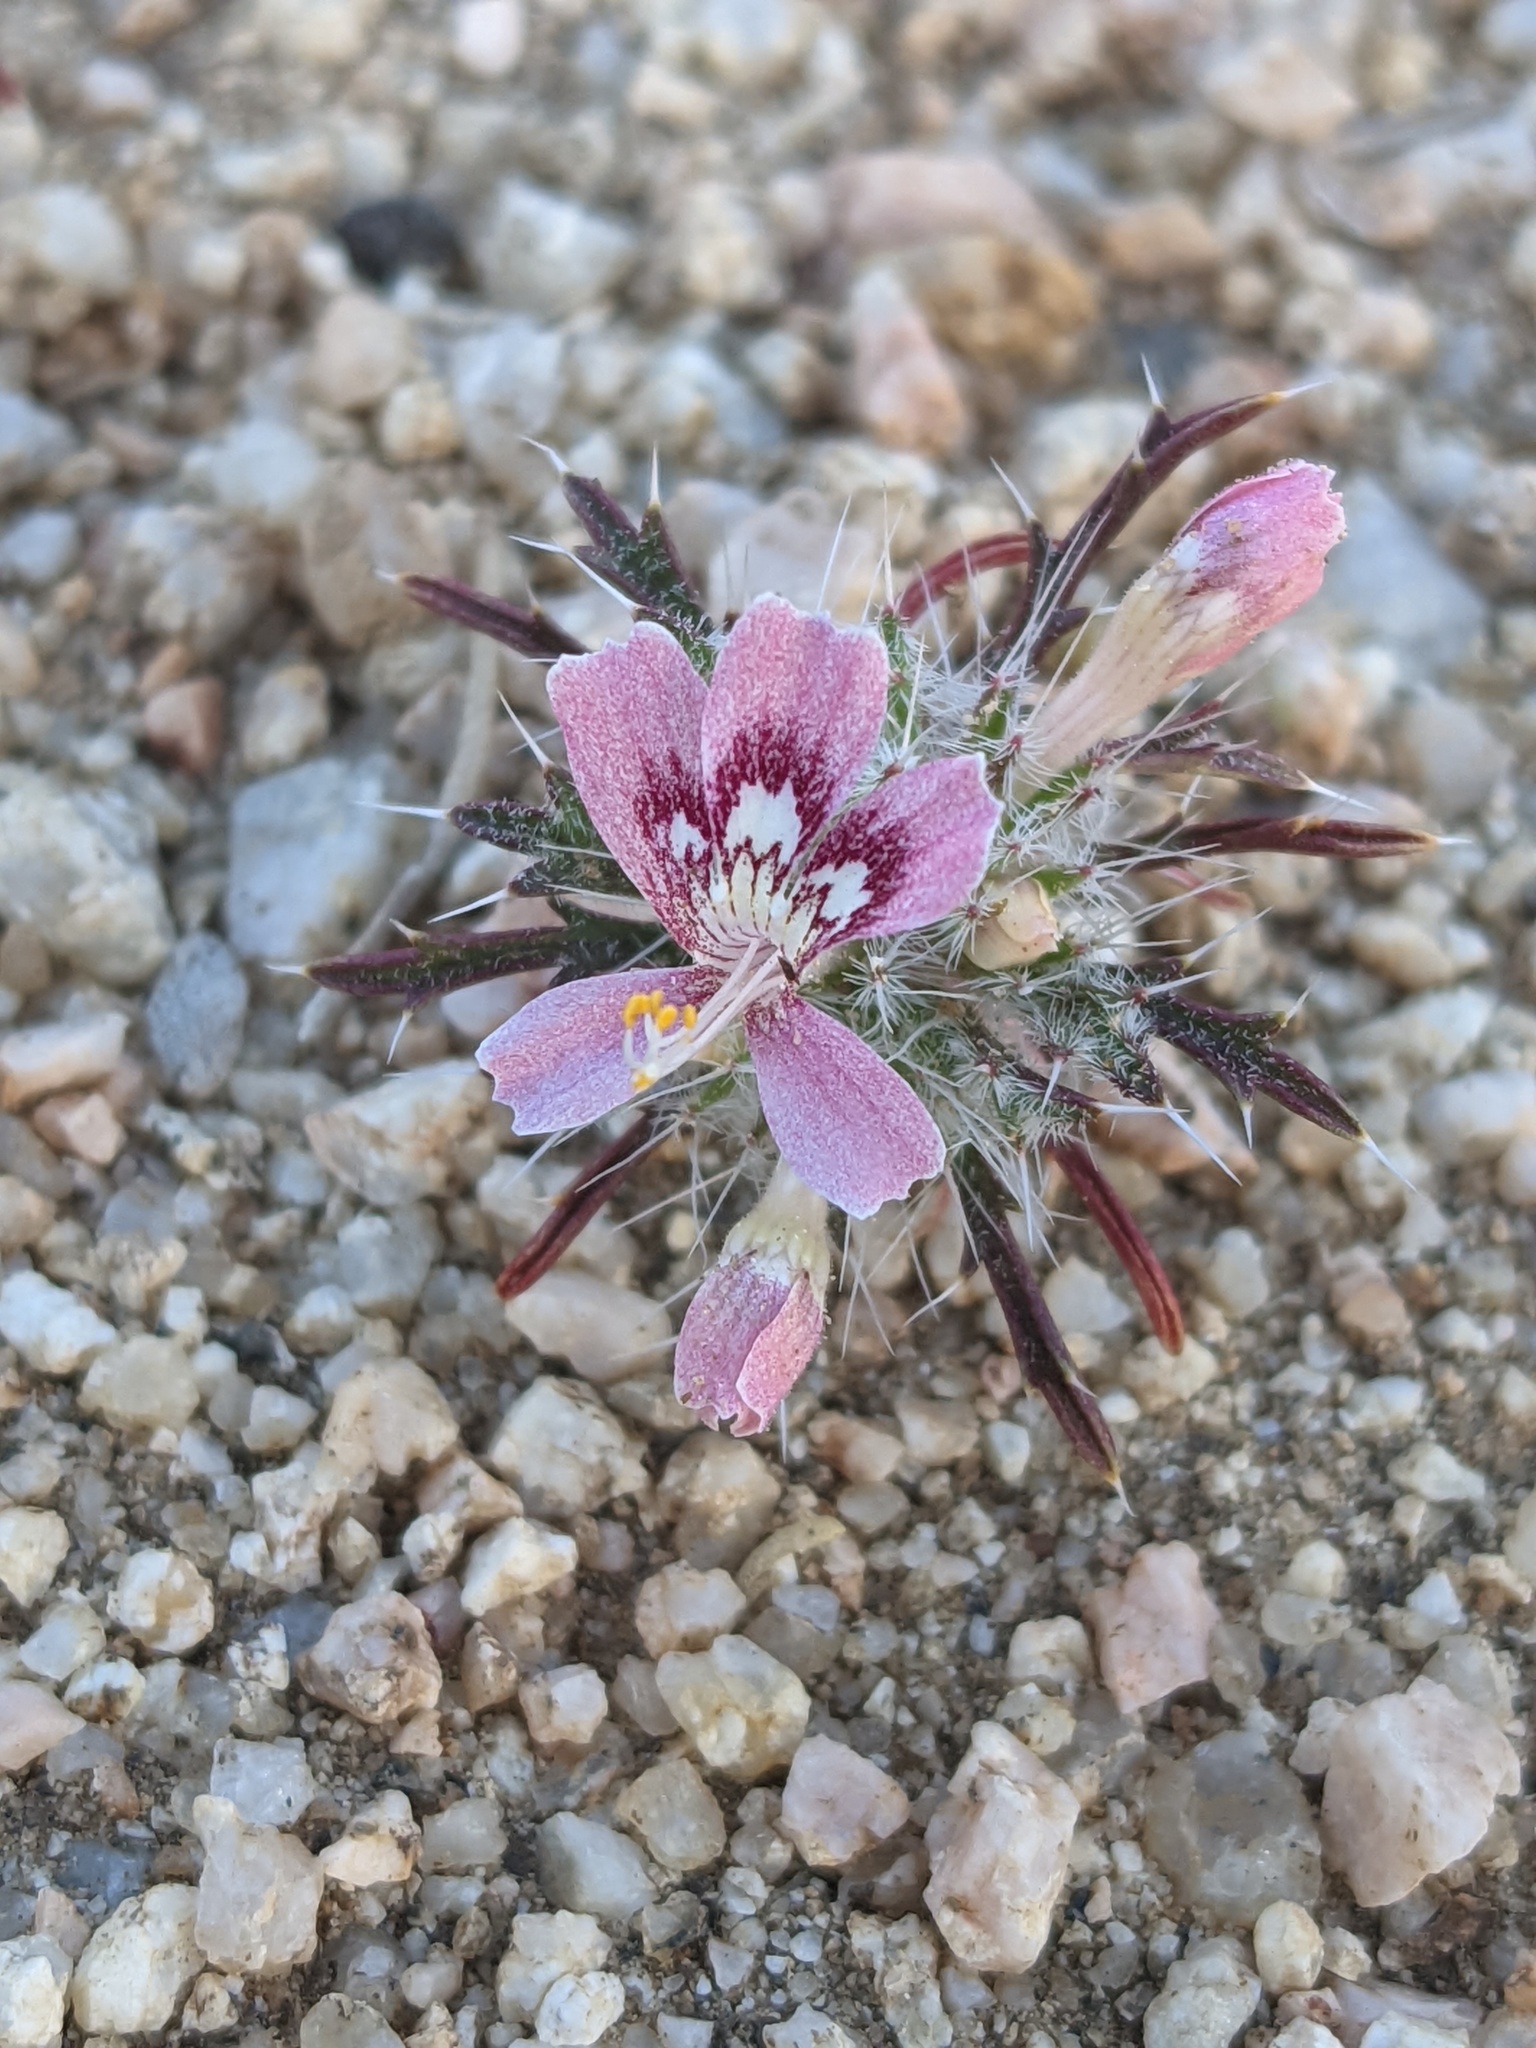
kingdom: Plantae
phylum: Tracheophyta
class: Magnoliopsida
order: Ericales
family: Polemoniaceae
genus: Loeseliastrum
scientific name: Loeseliastrum matthewsii
